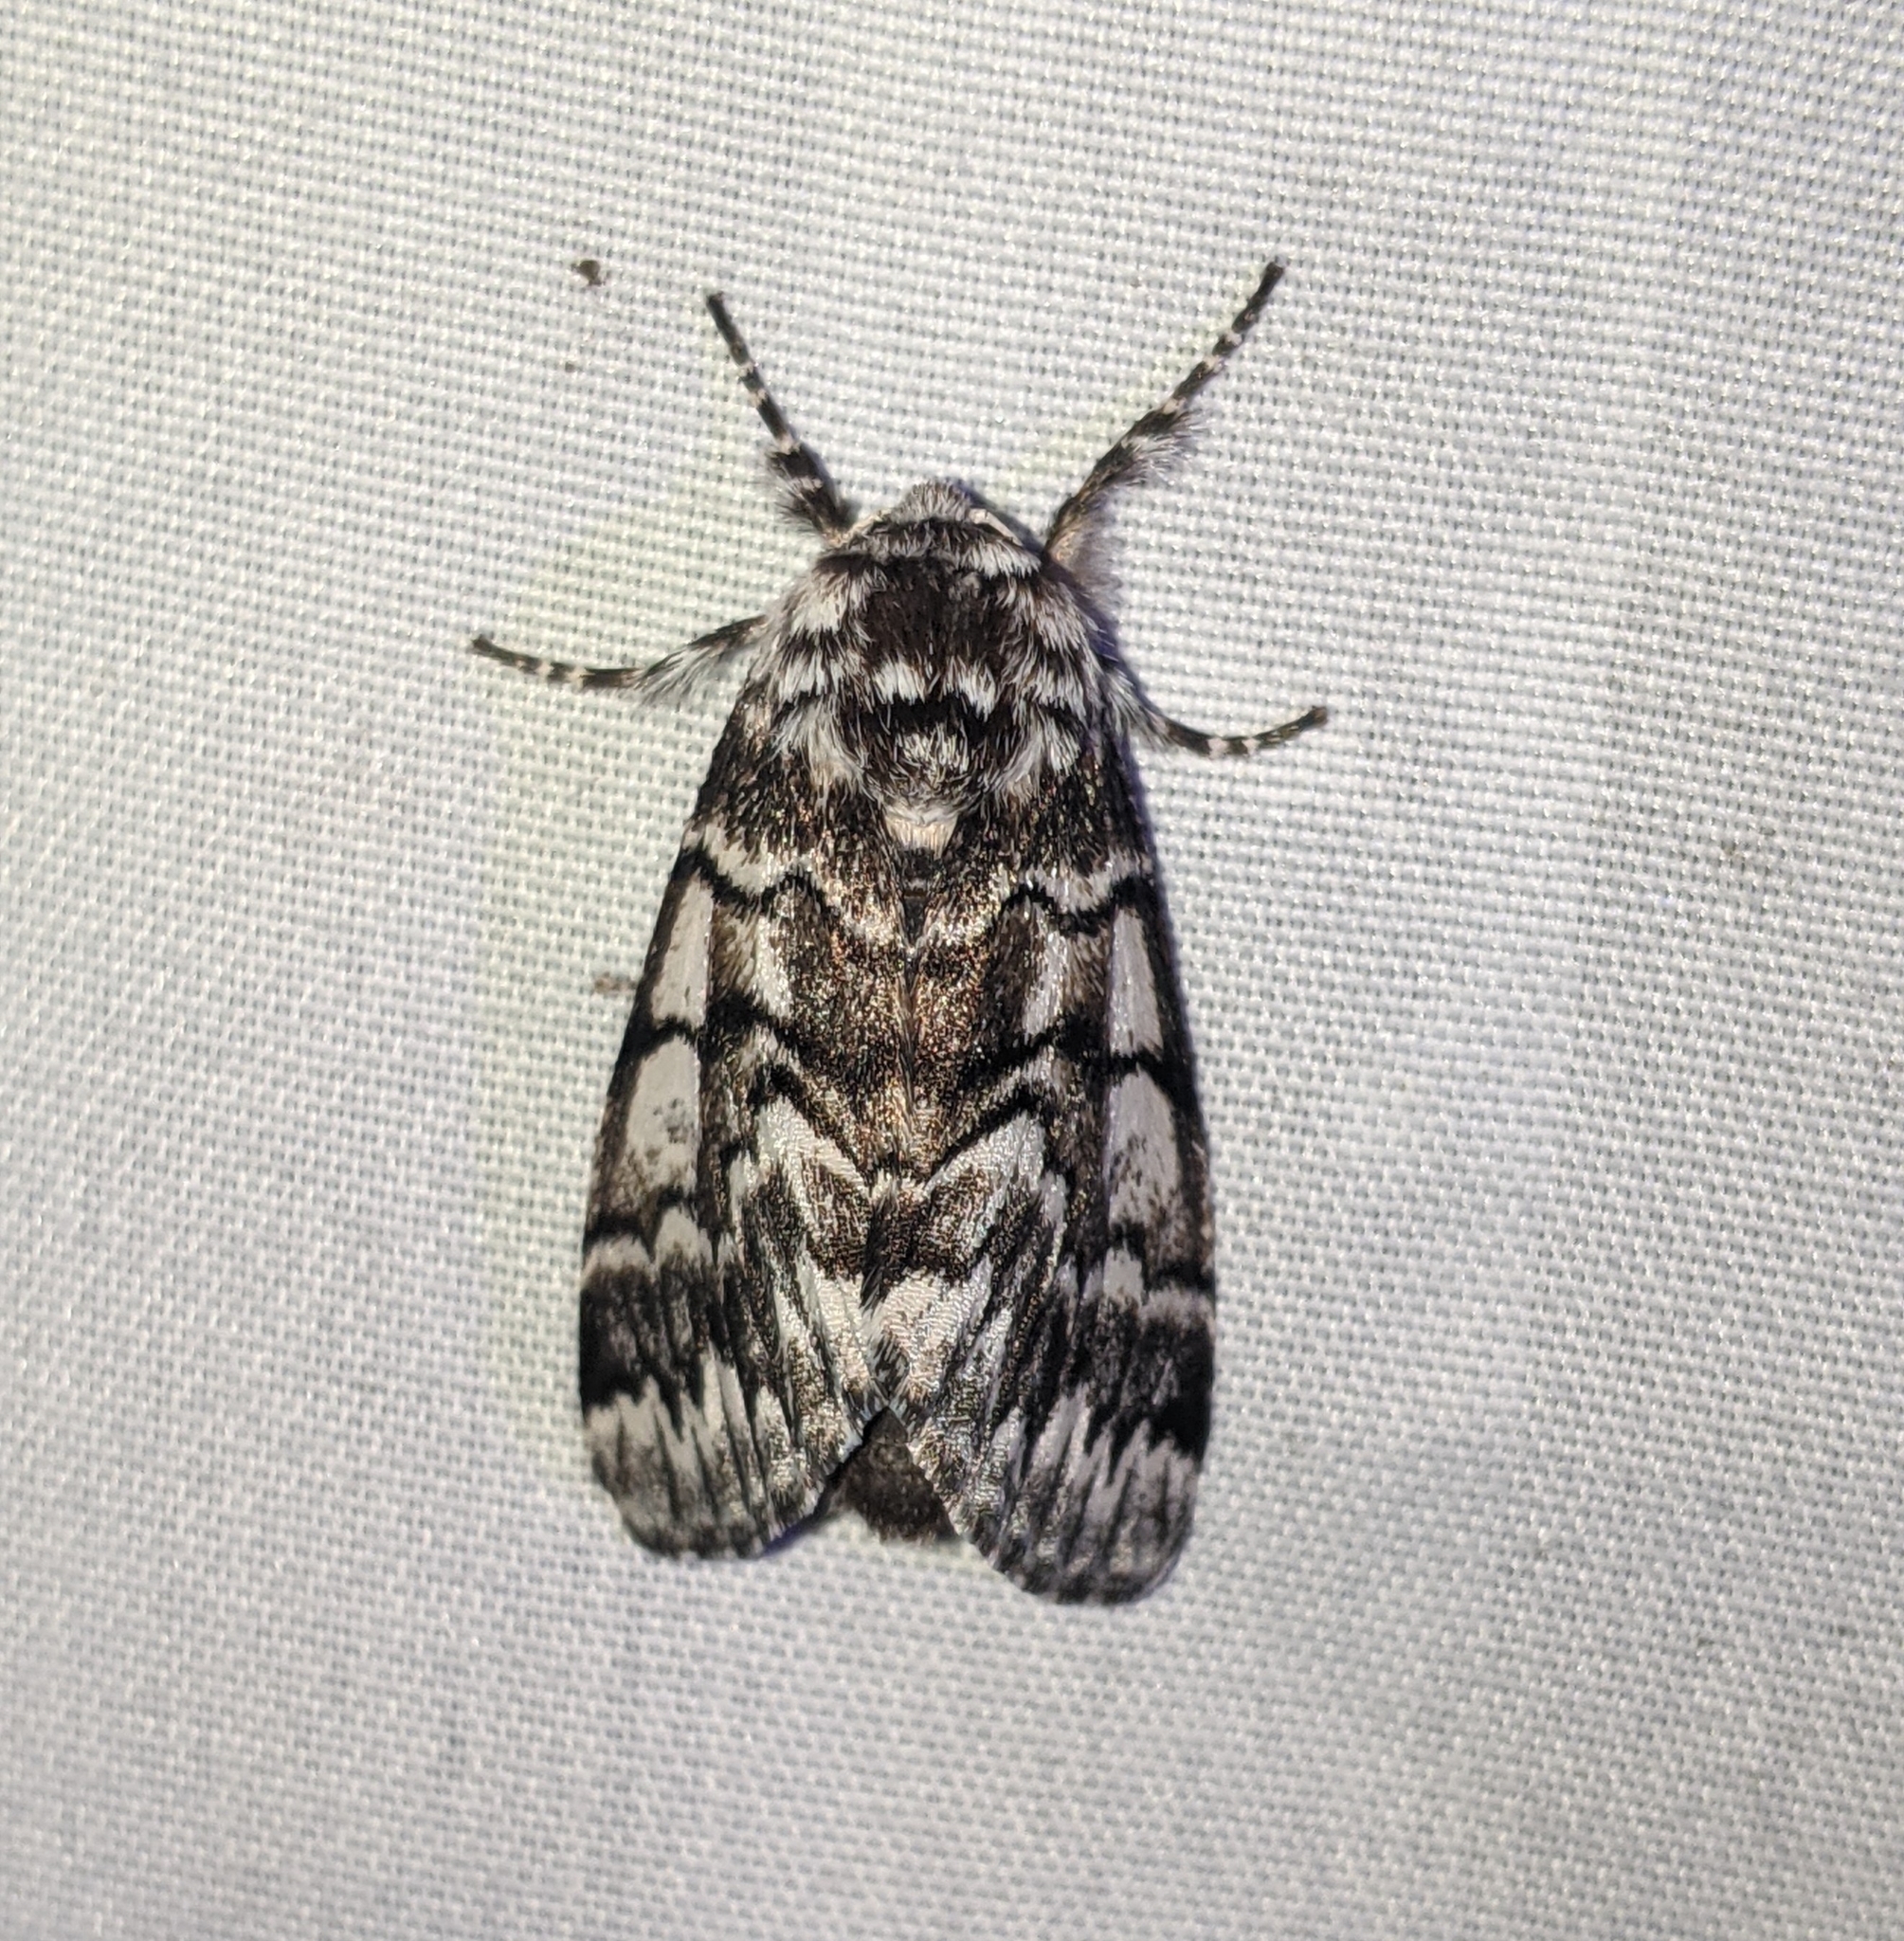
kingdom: Animalia
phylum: Arthropoda
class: Insecta
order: Lepidoptera
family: Noctuidae
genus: Panthea
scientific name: Panthea virginarius
